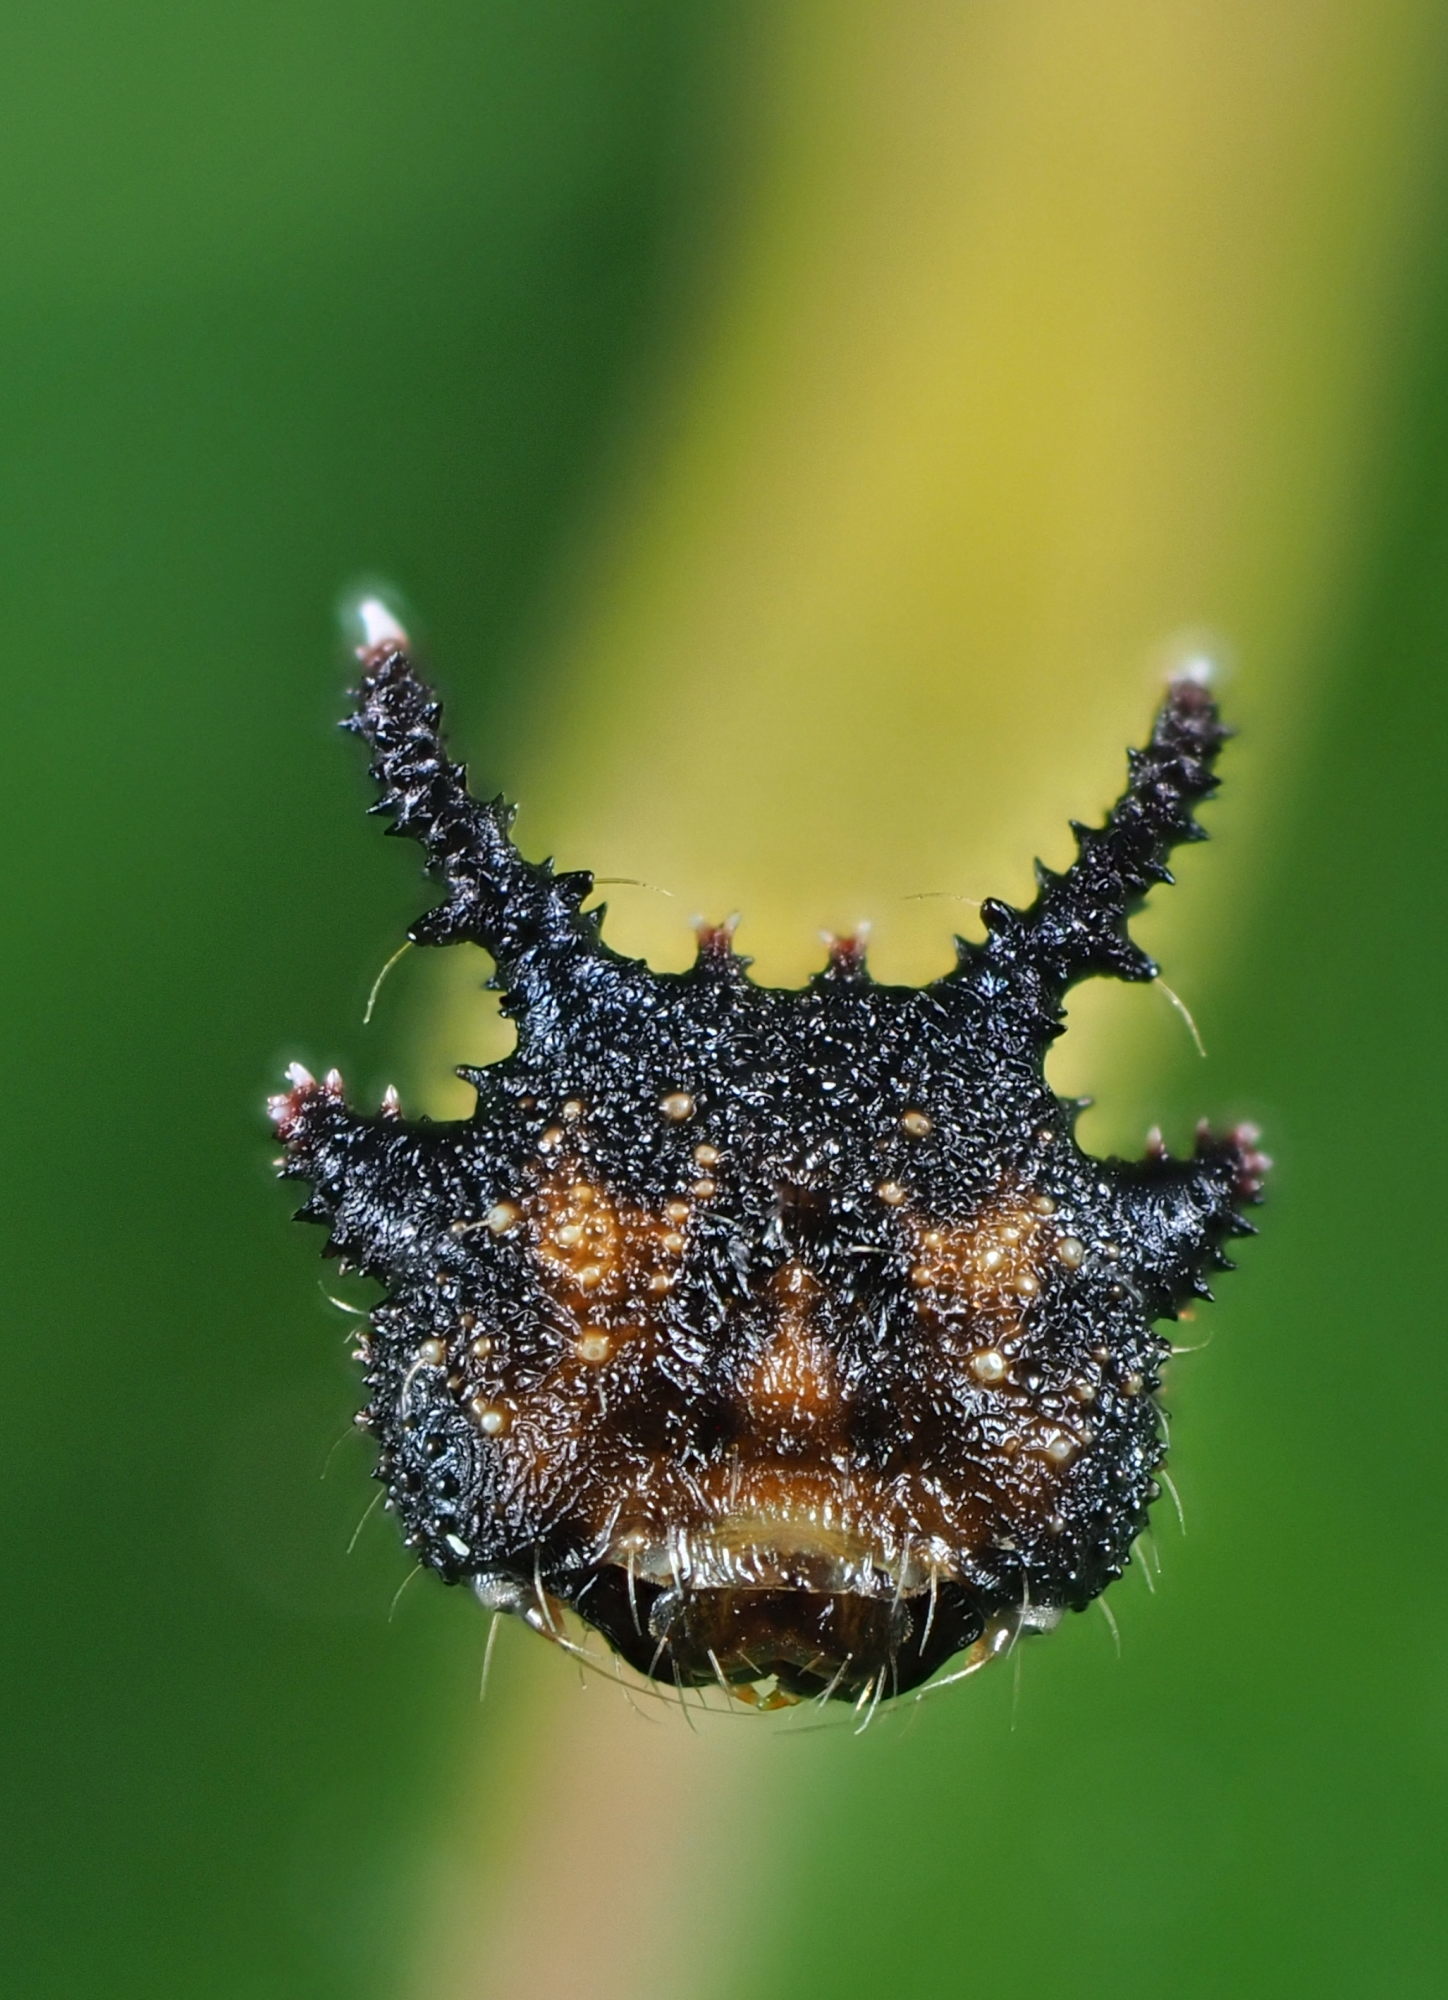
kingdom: Animalia
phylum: Arthropoda
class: Insecta
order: Lepidoptera
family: Nymphalidae
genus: Charaxes
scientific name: Charaxes jasius
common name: Two tailed pasha
